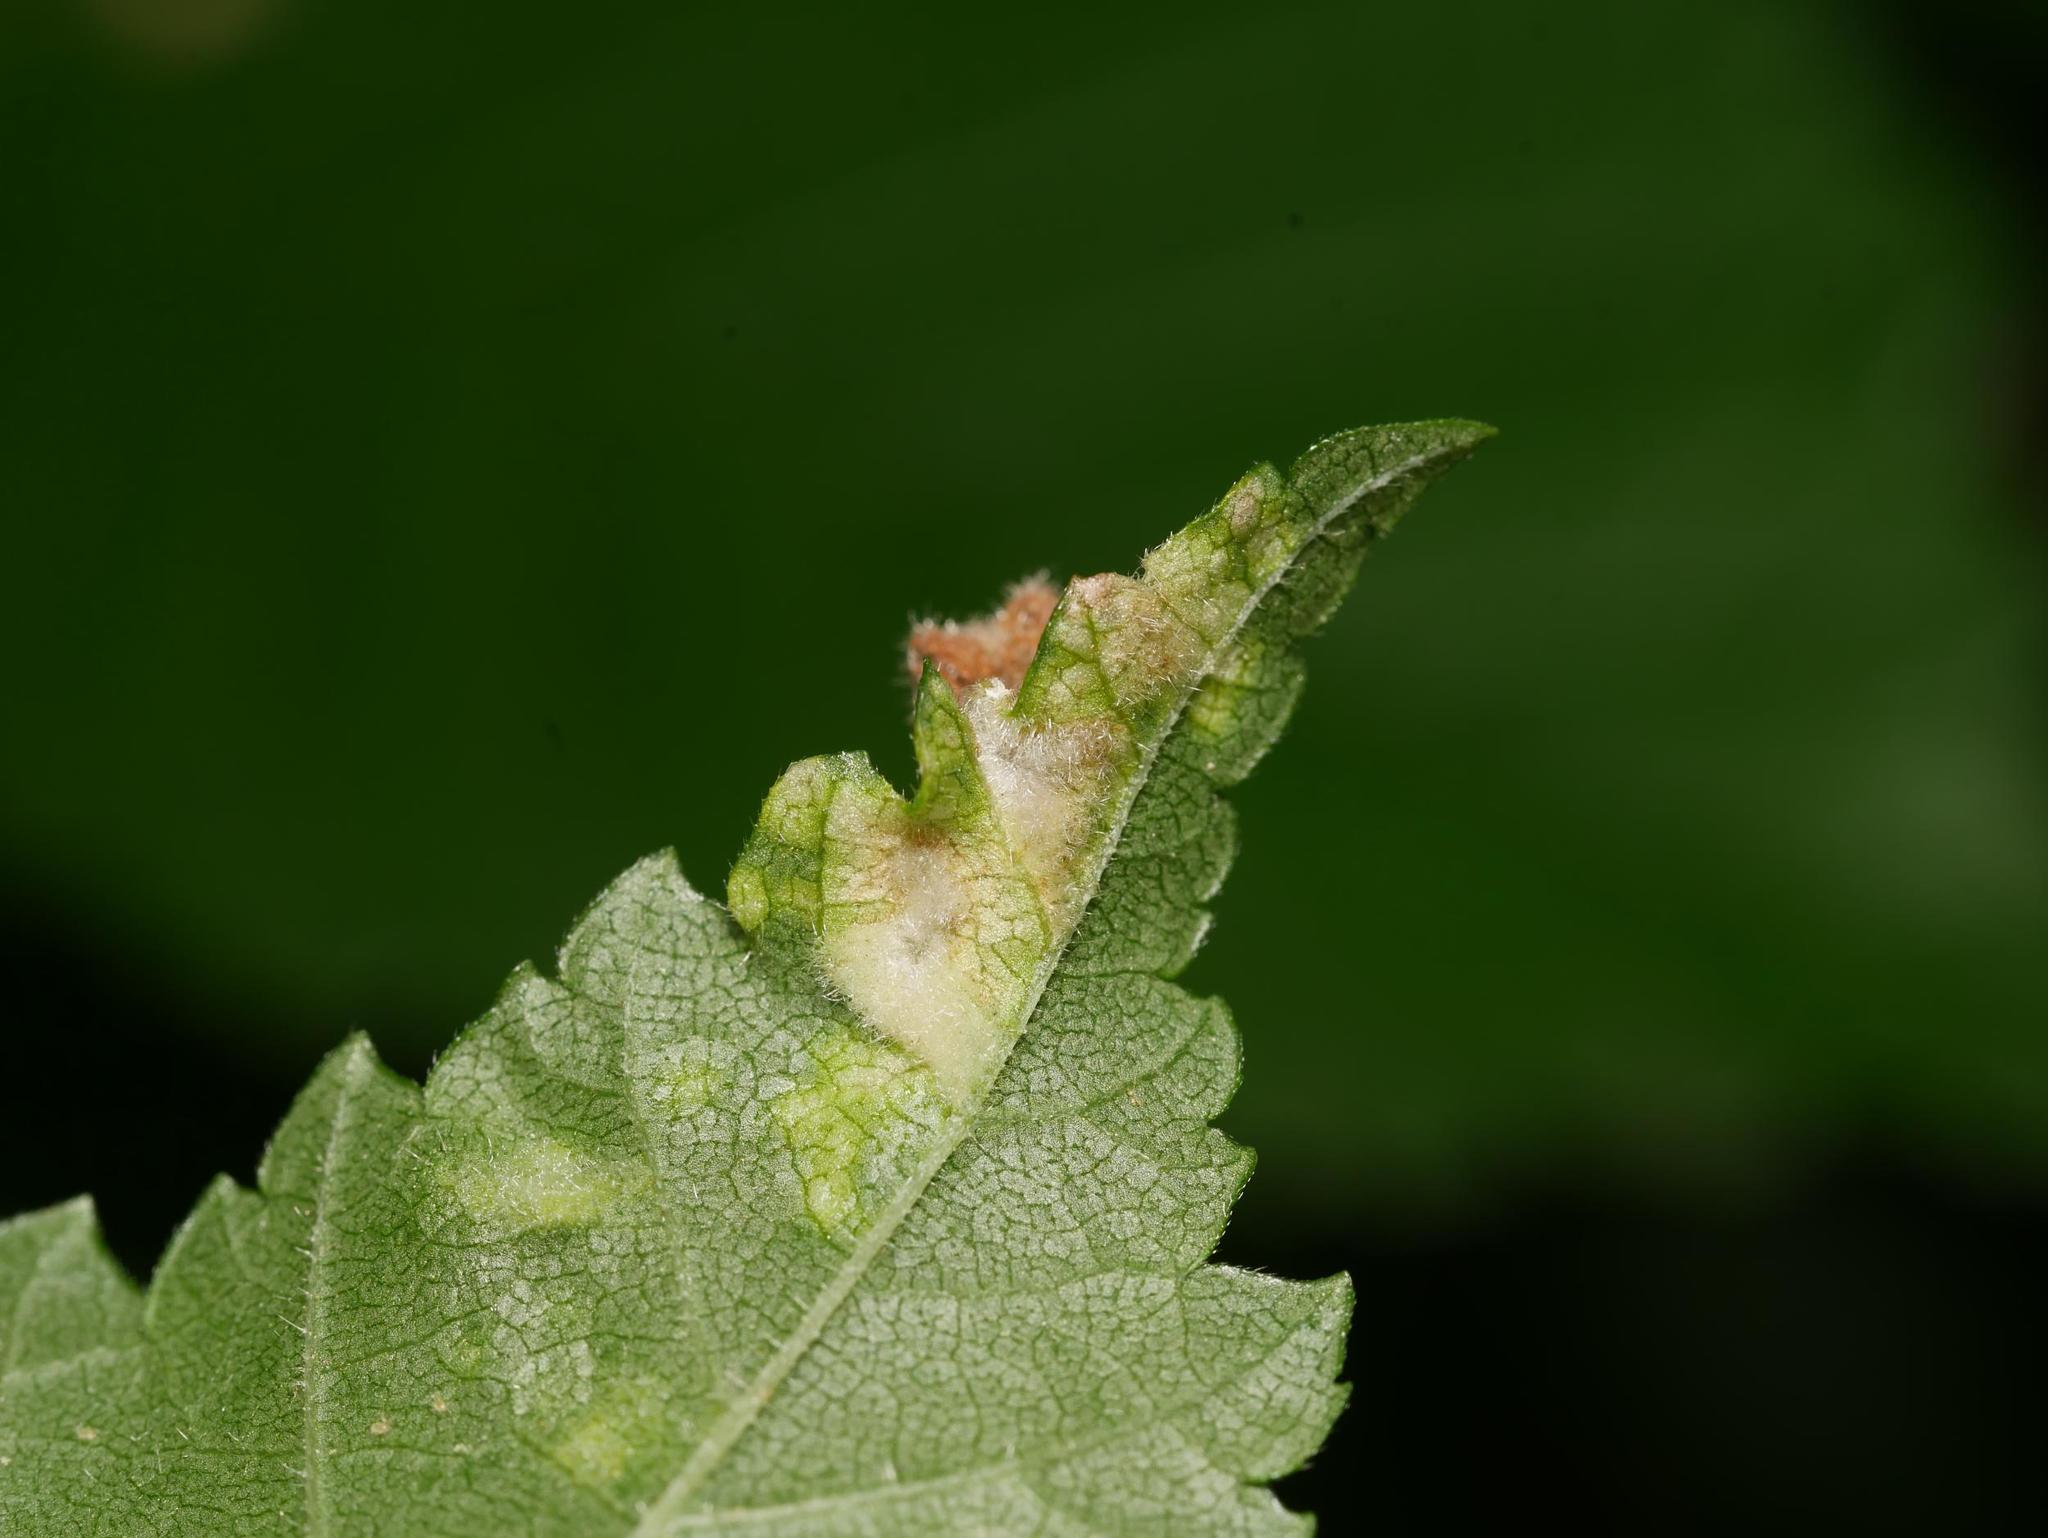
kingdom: Animalia
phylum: Arthropoda
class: Insecta
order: Hemiptera
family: Aphididae
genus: Tetraneura
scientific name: Tetraneura nigriabdominalis
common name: Aphid
